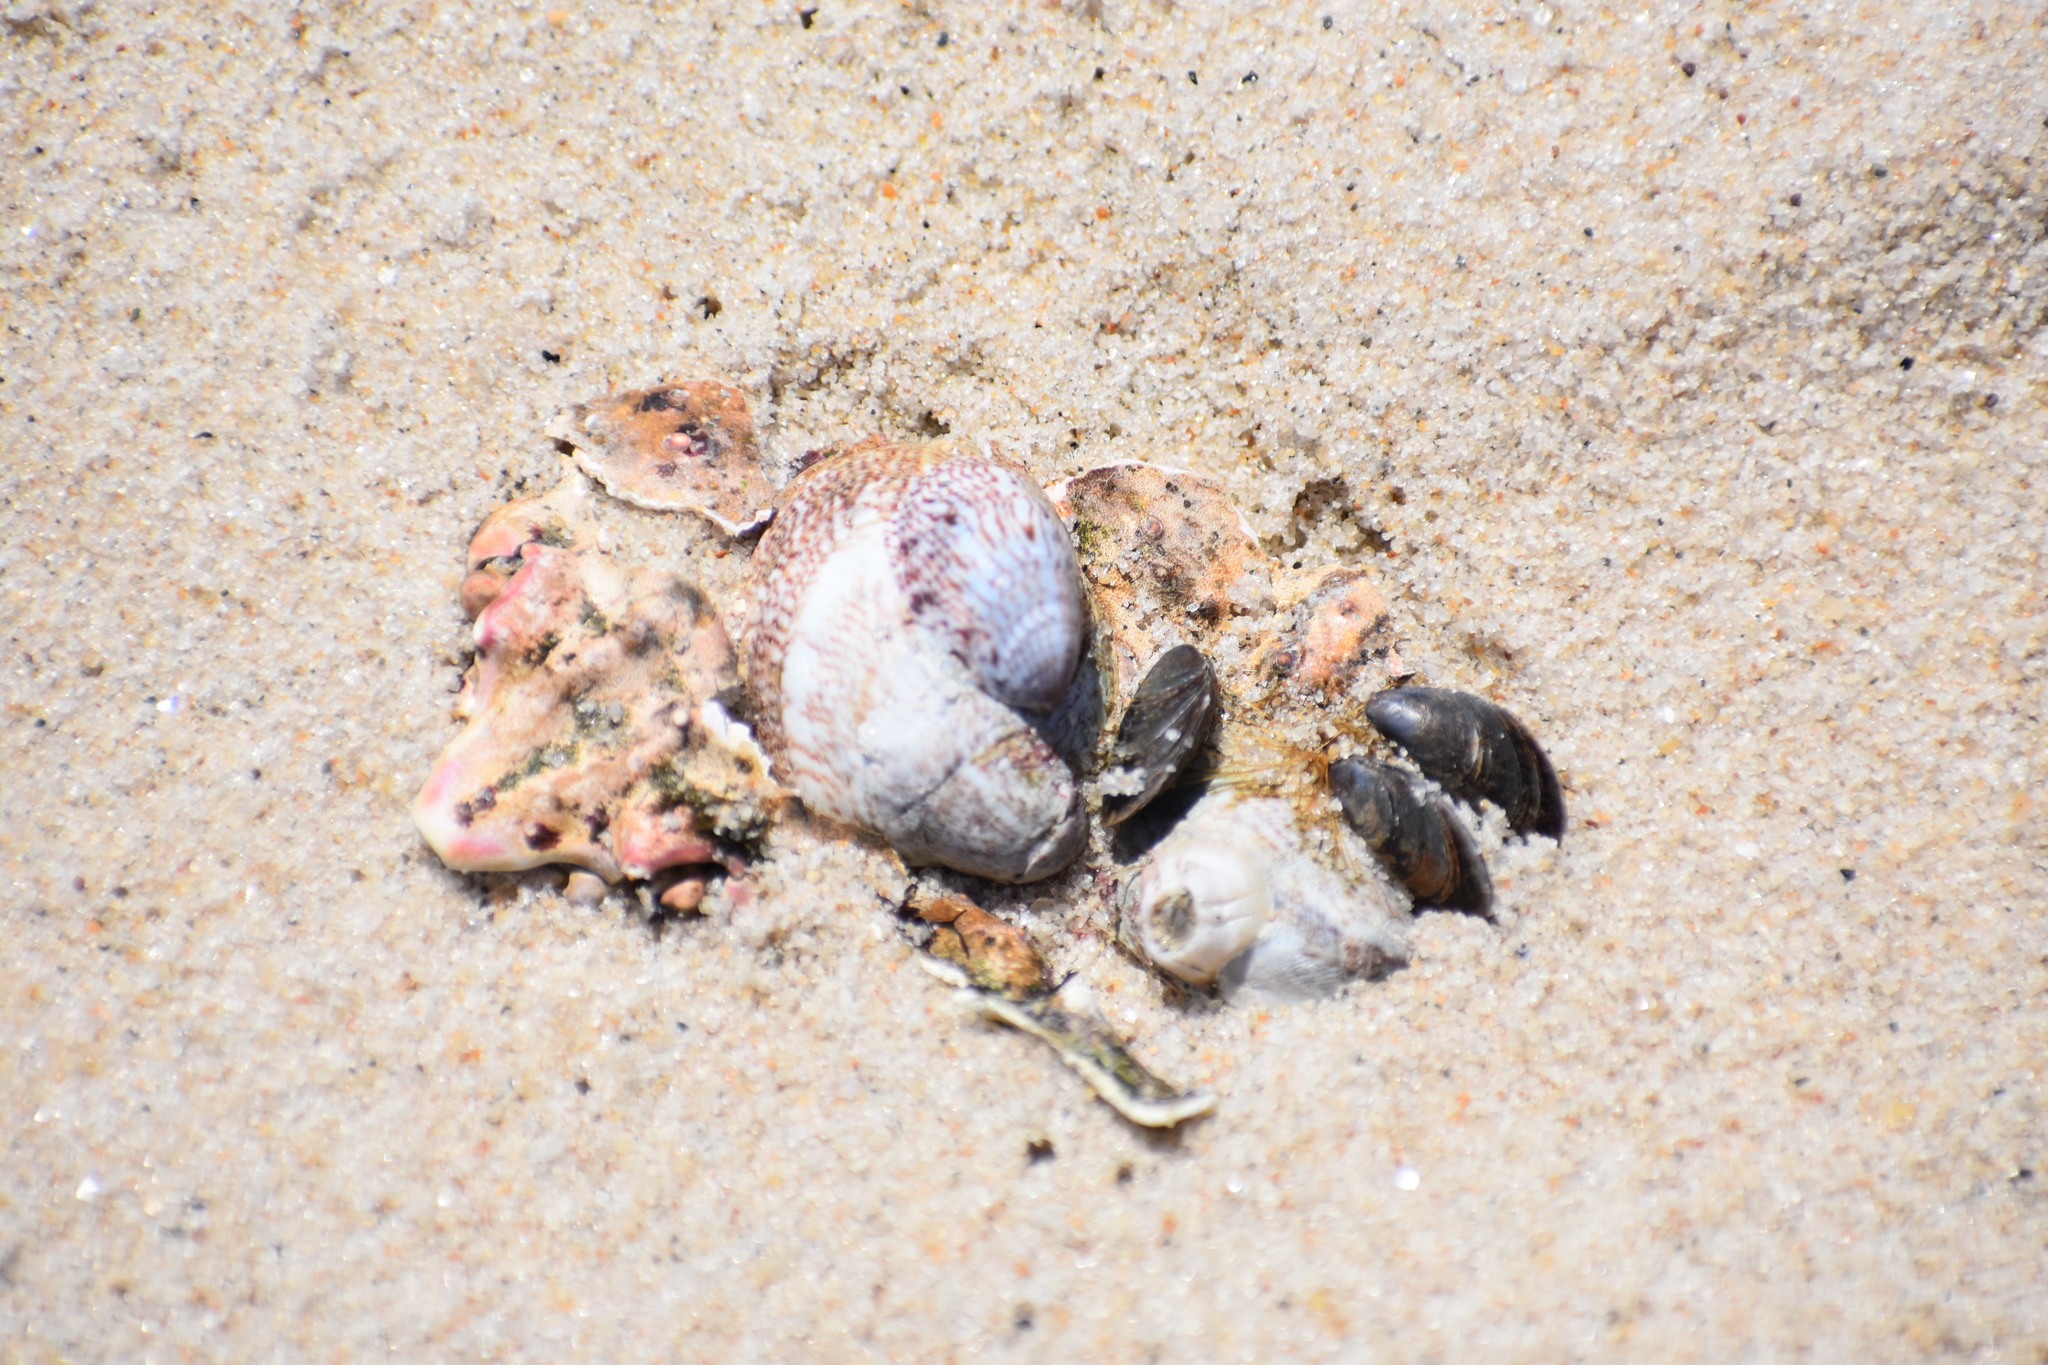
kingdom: Animalia
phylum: Mollusca
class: Gastropoda
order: Littorinimorpha
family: Calyptraeidae
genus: Crepidula
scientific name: Crepidula fornicata
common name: Slipper limpet
